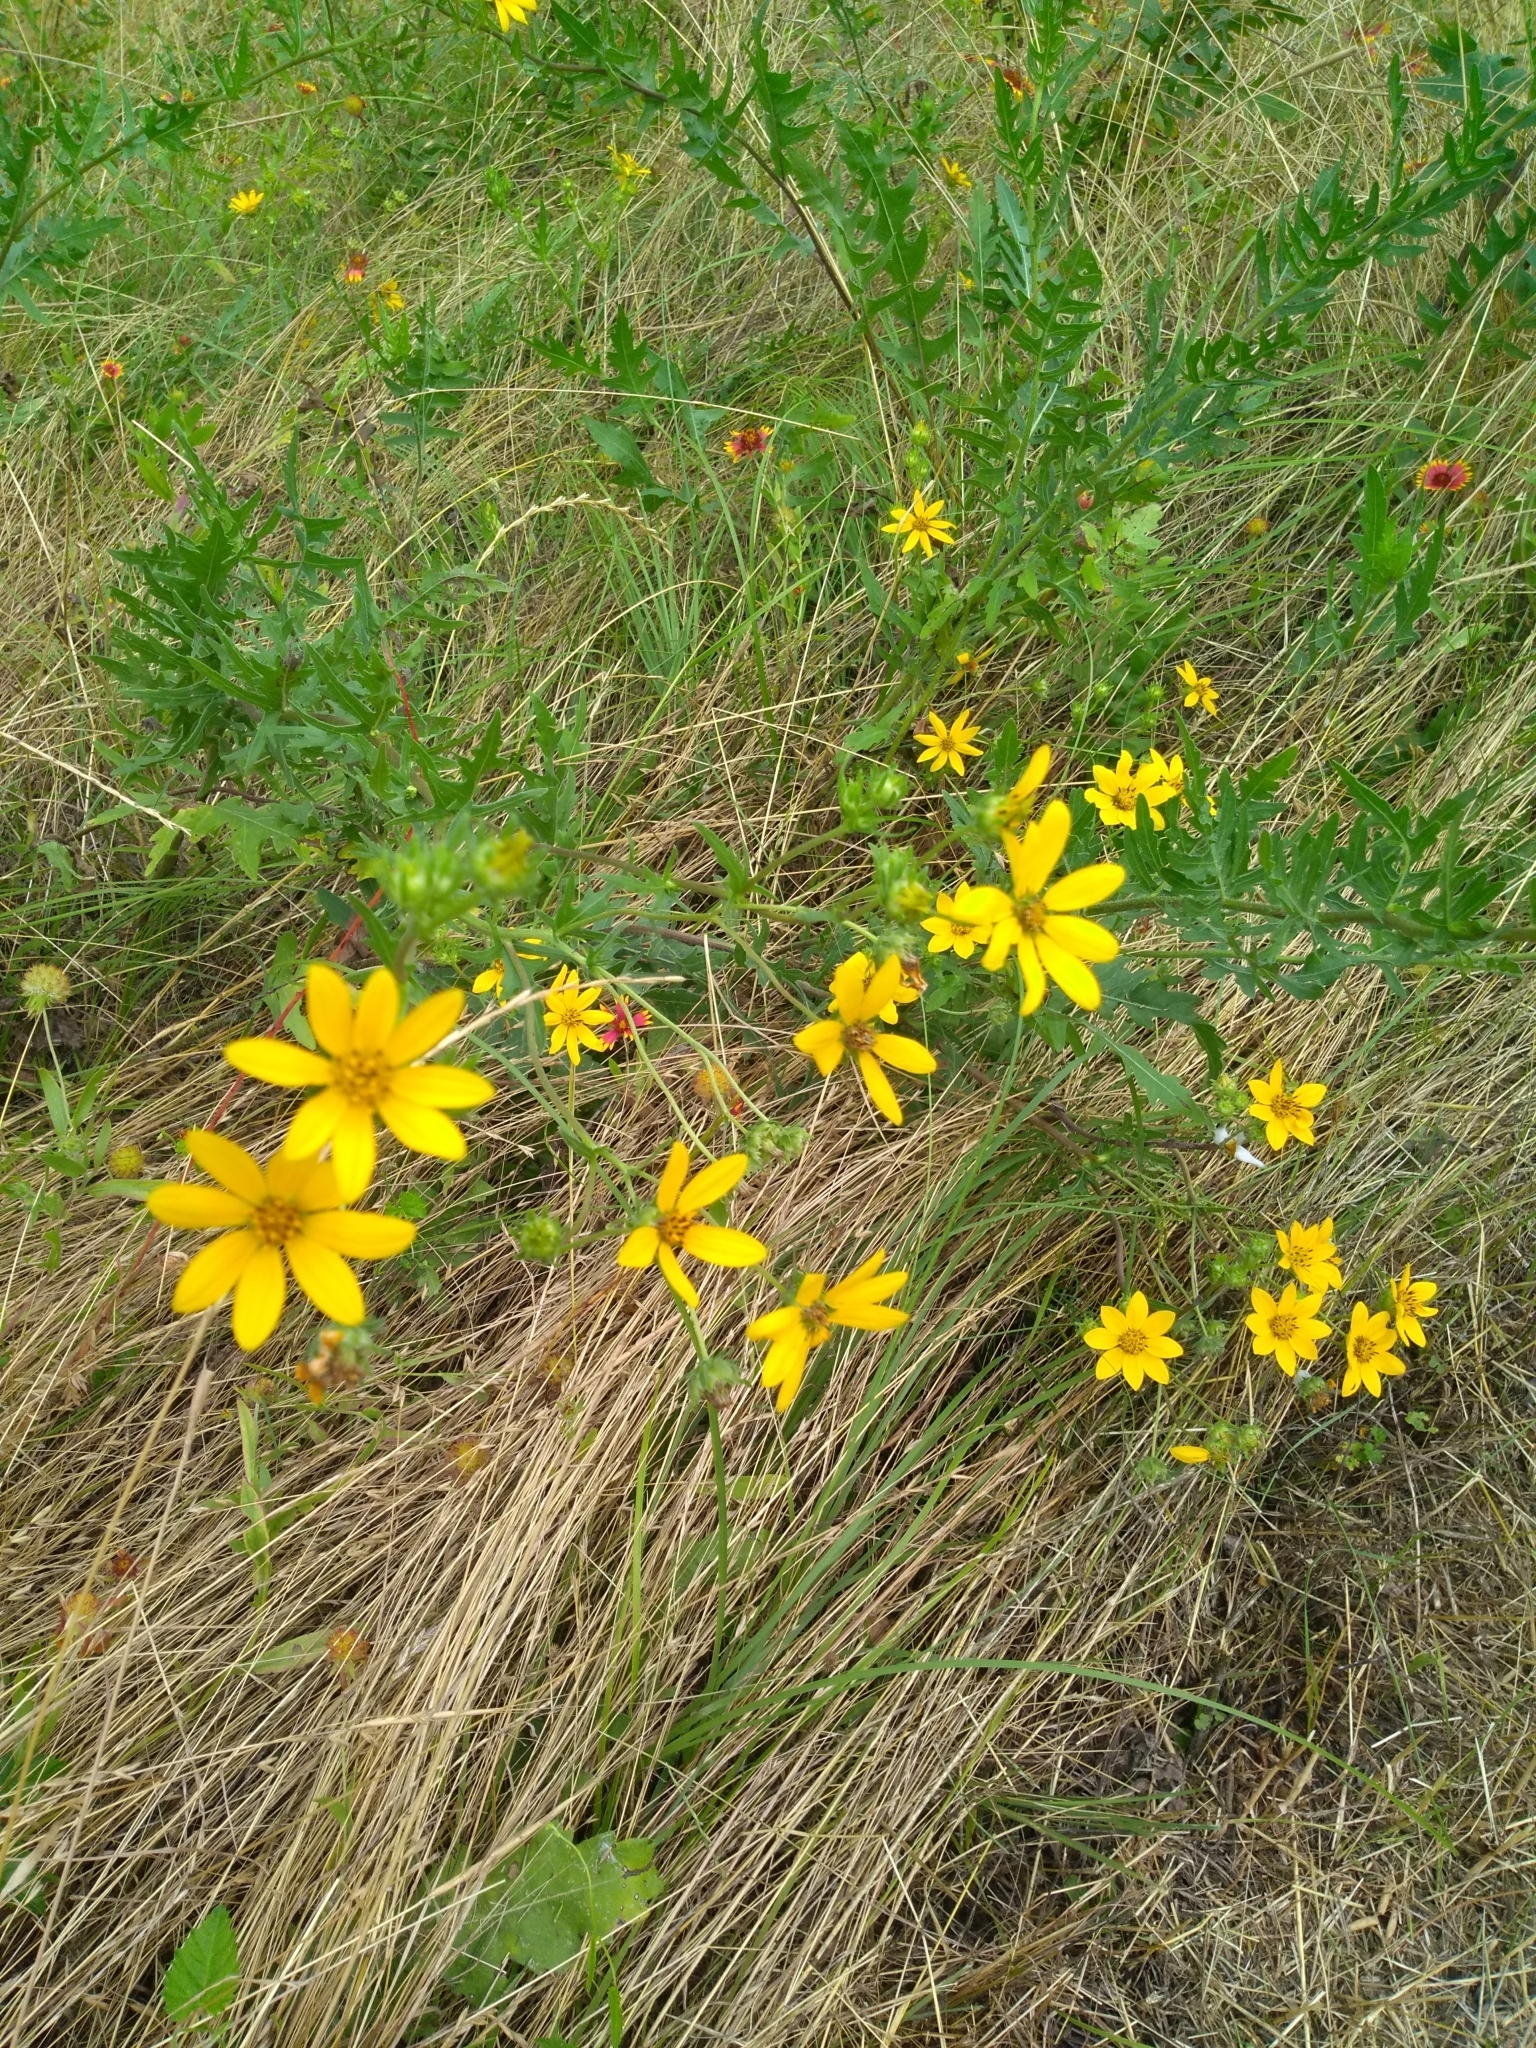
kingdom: Plantae
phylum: Tracheophyta
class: Magnoliopsida
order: Asterales
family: Asteraceae
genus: Engelmannia
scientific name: Engelmannia peristenia
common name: Engelmann's daisy
